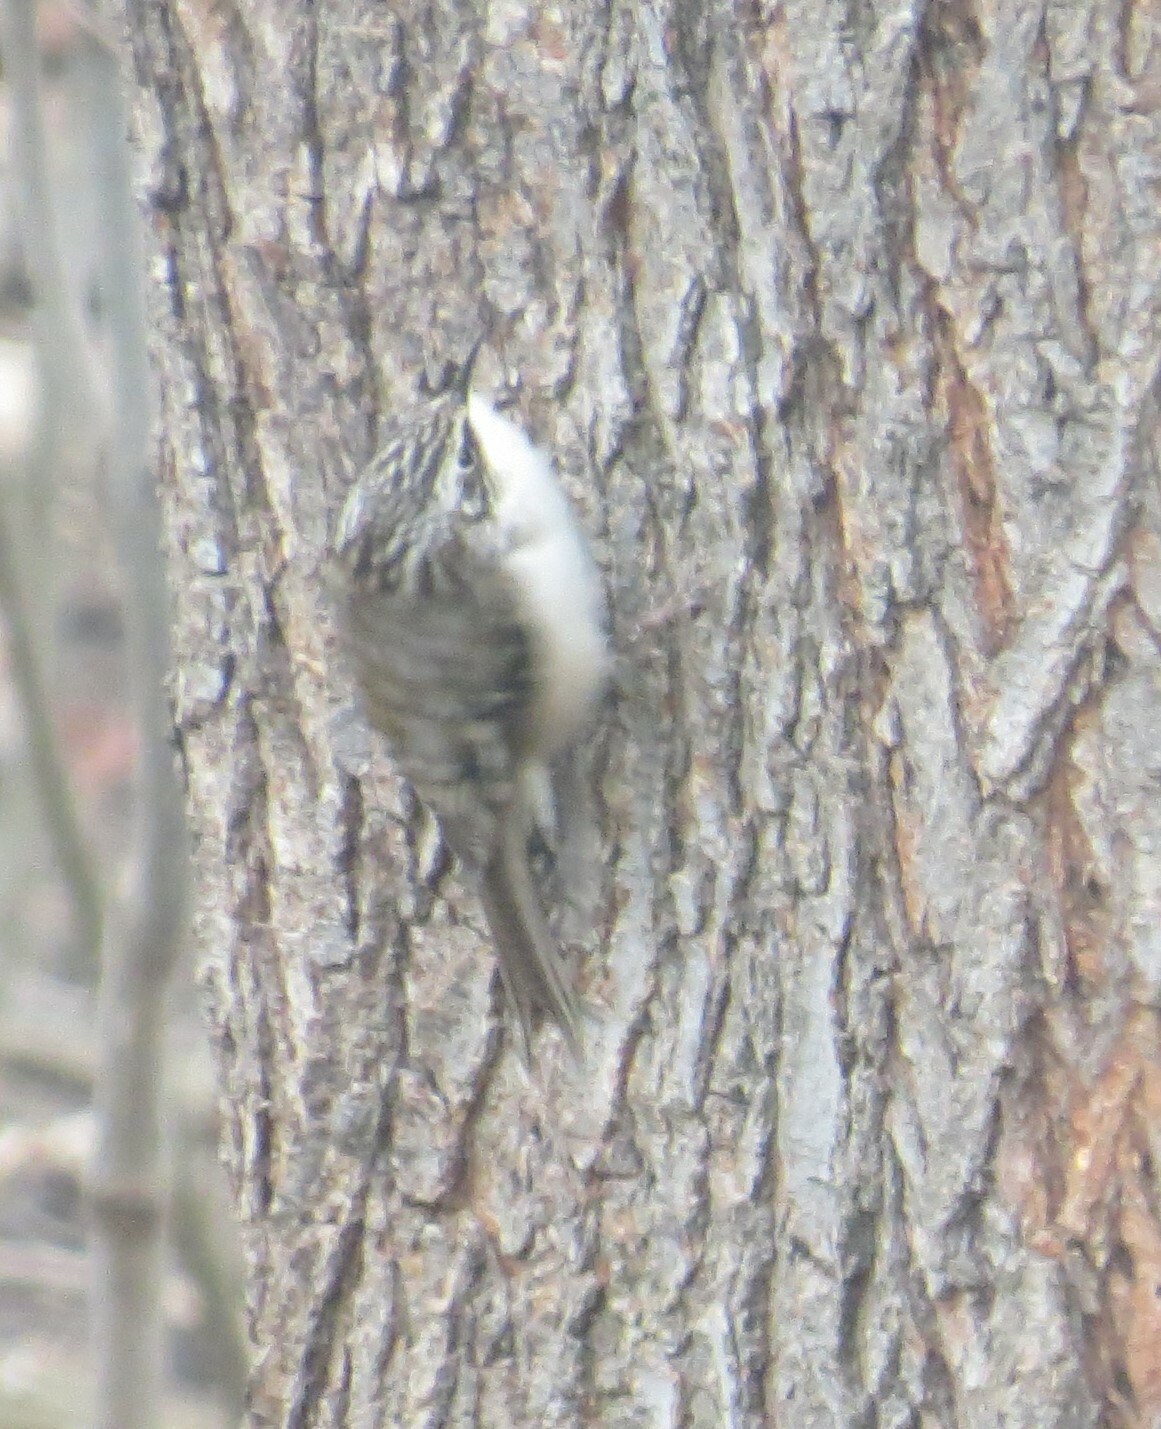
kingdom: Animalia
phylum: Chordata
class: Aves
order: Passeriformes
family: Certhiidae
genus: Certhia
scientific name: Certhia americana
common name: Brown creeper
